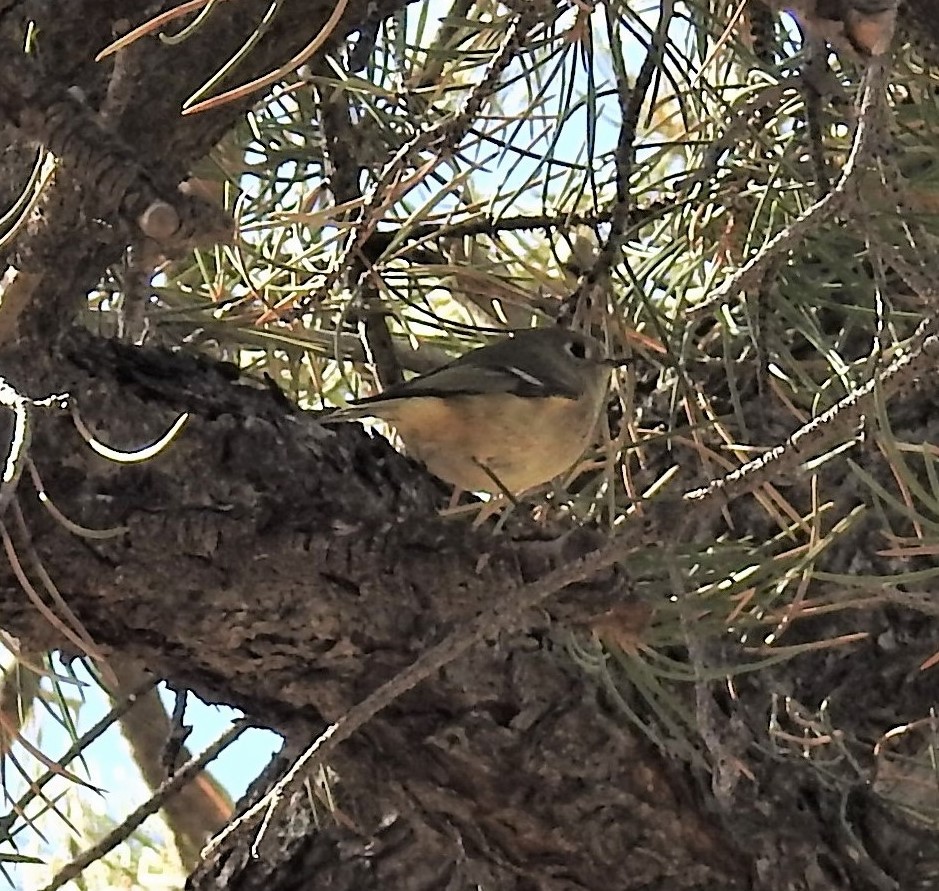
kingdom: Animalia
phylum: Chordata
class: Aves
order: Passeriformes
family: Regulidae
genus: Regulus
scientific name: Regulus calendula
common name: Ruby-crowned kinglet
